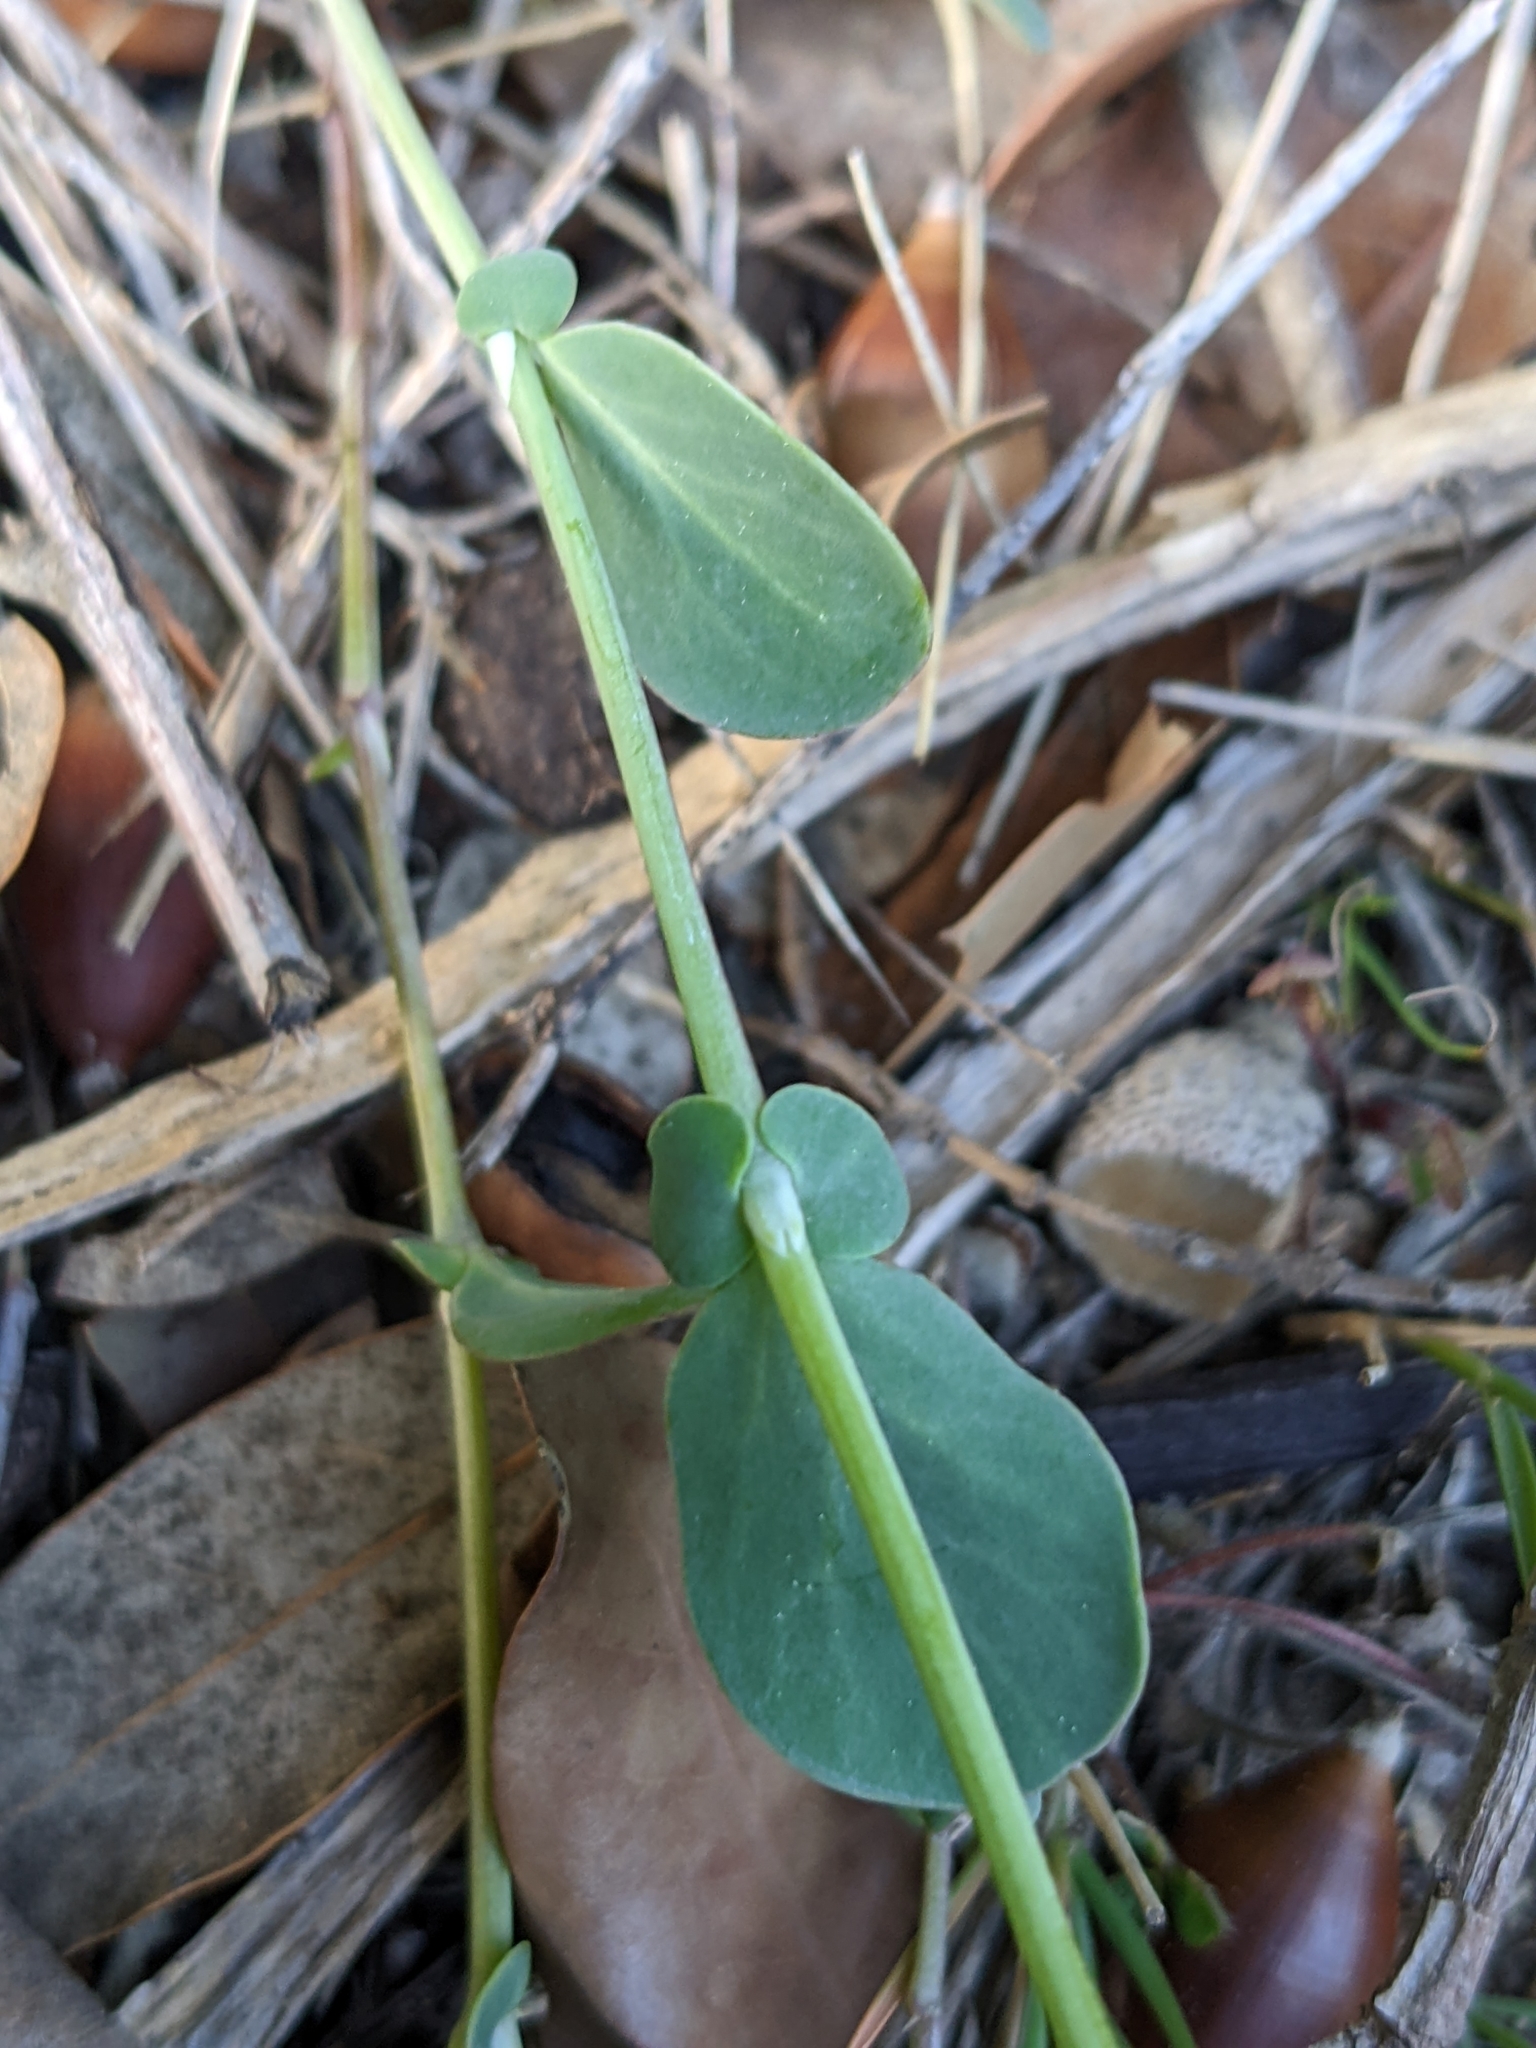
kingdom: Plantae
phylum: Tracheophyta
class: Magnoliopsida
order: Fabales
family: Fabaceae
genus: Coronilla
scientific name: Coronilla scorpioides
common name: Annual scorpion-vetch
